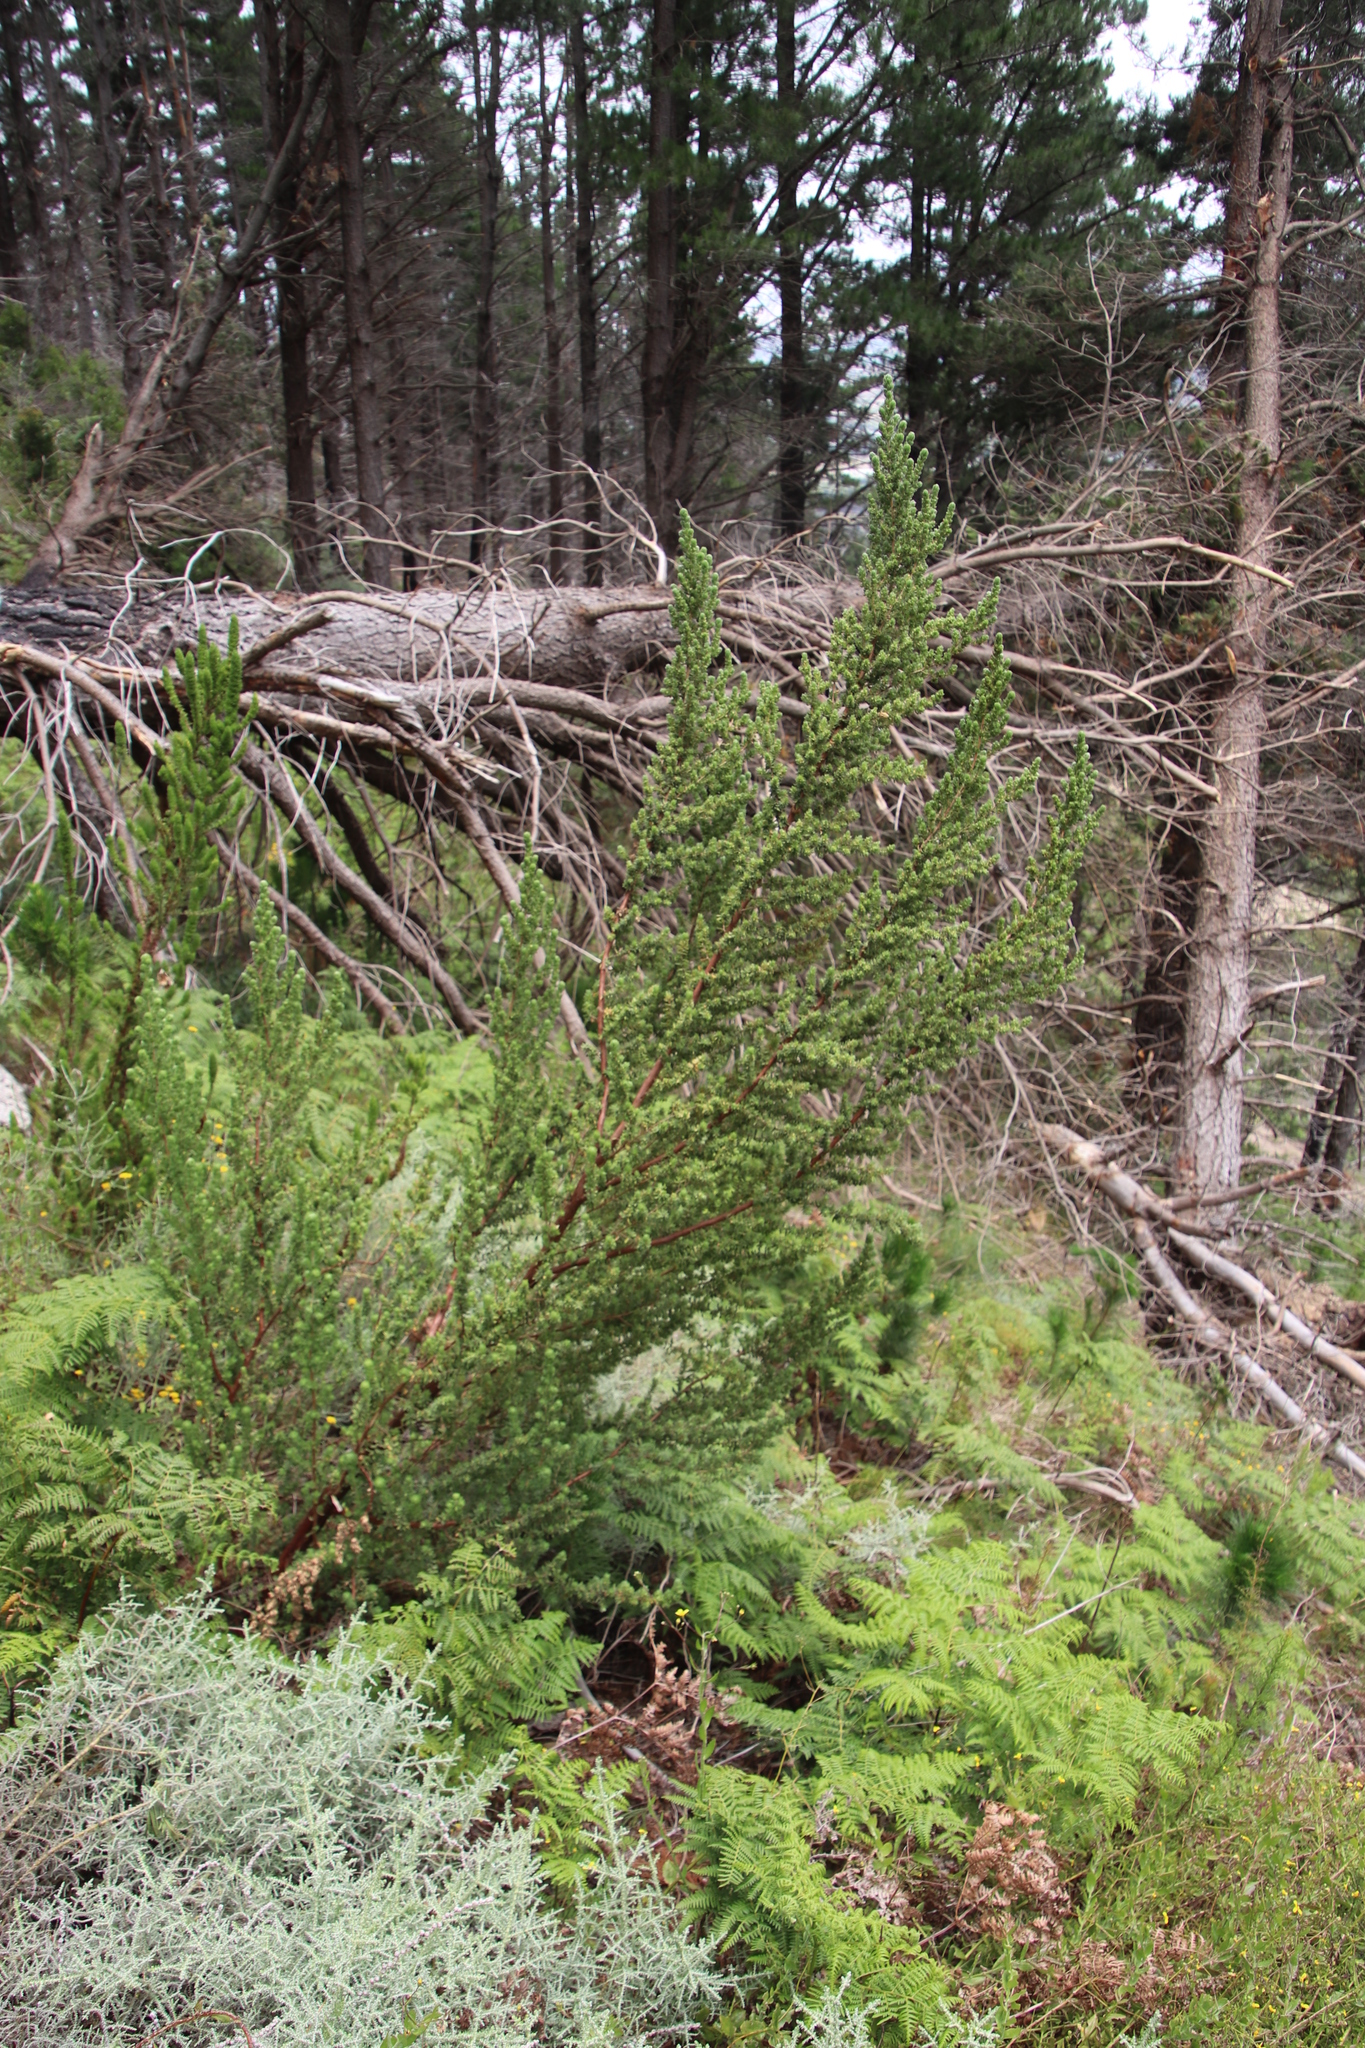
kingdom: Plantae
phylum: Tracheophyta
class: Magnoliopsida
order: Rosales
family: Rosaceae
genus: Cliffortia
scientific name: Cliffortia polygonifolia
